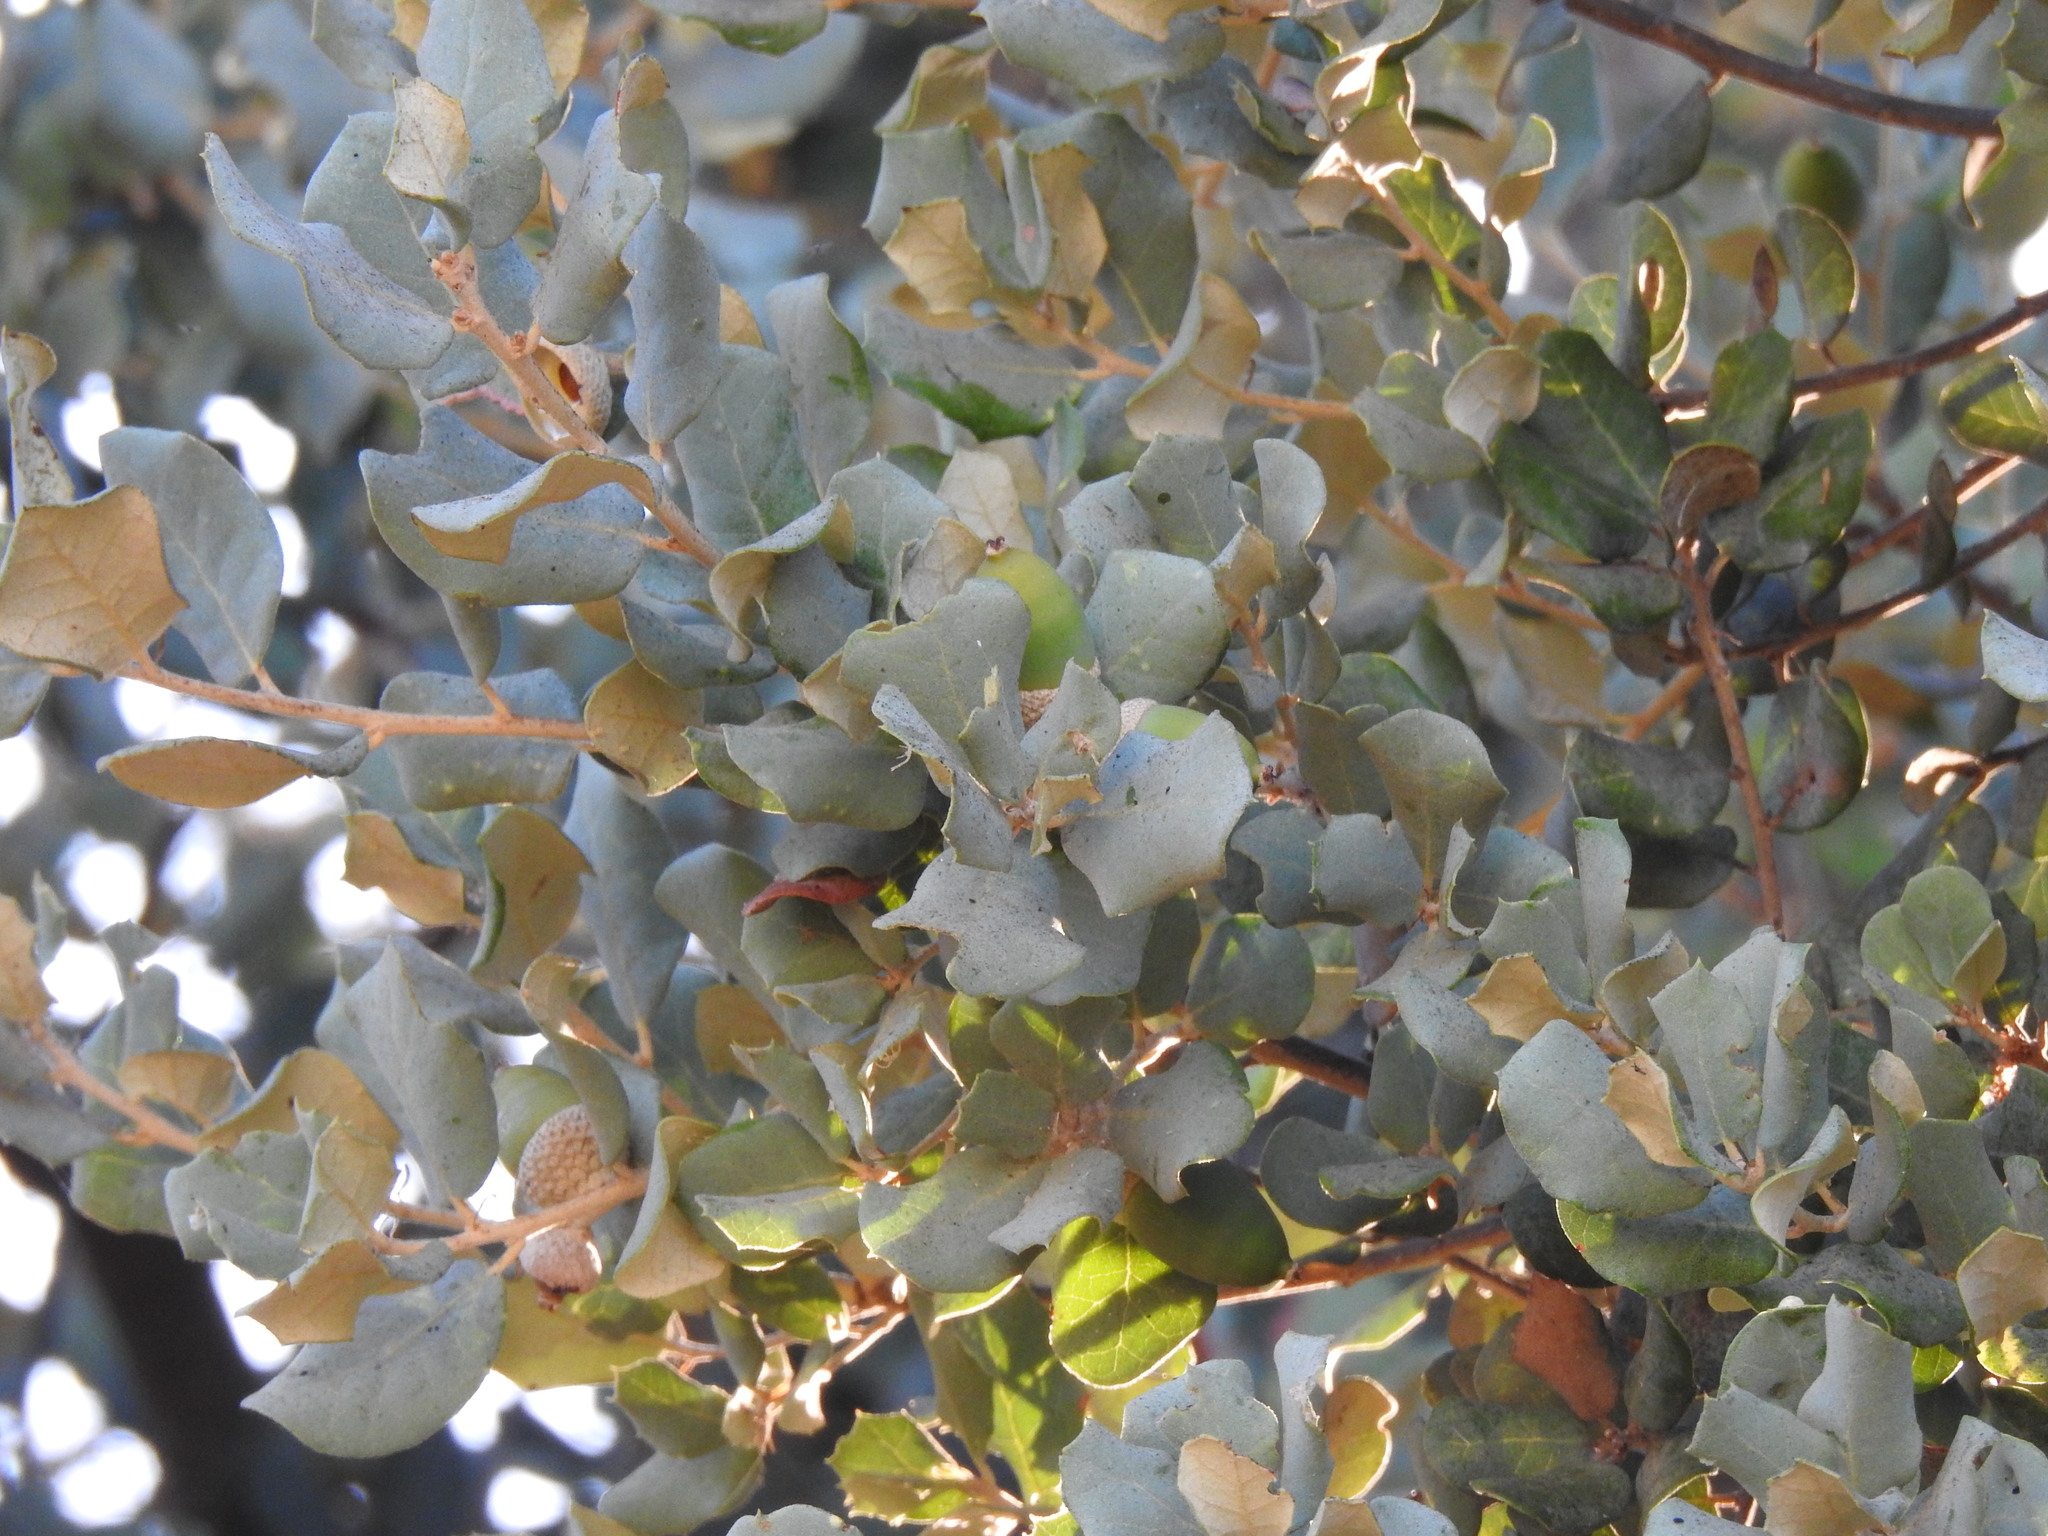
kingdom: Plantae
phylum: Tracheophyta
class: Magnoliopsida
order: Fagales
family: Fagaceae
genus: Quercus
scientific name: Quercus rotundifolia
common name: Holm oak
